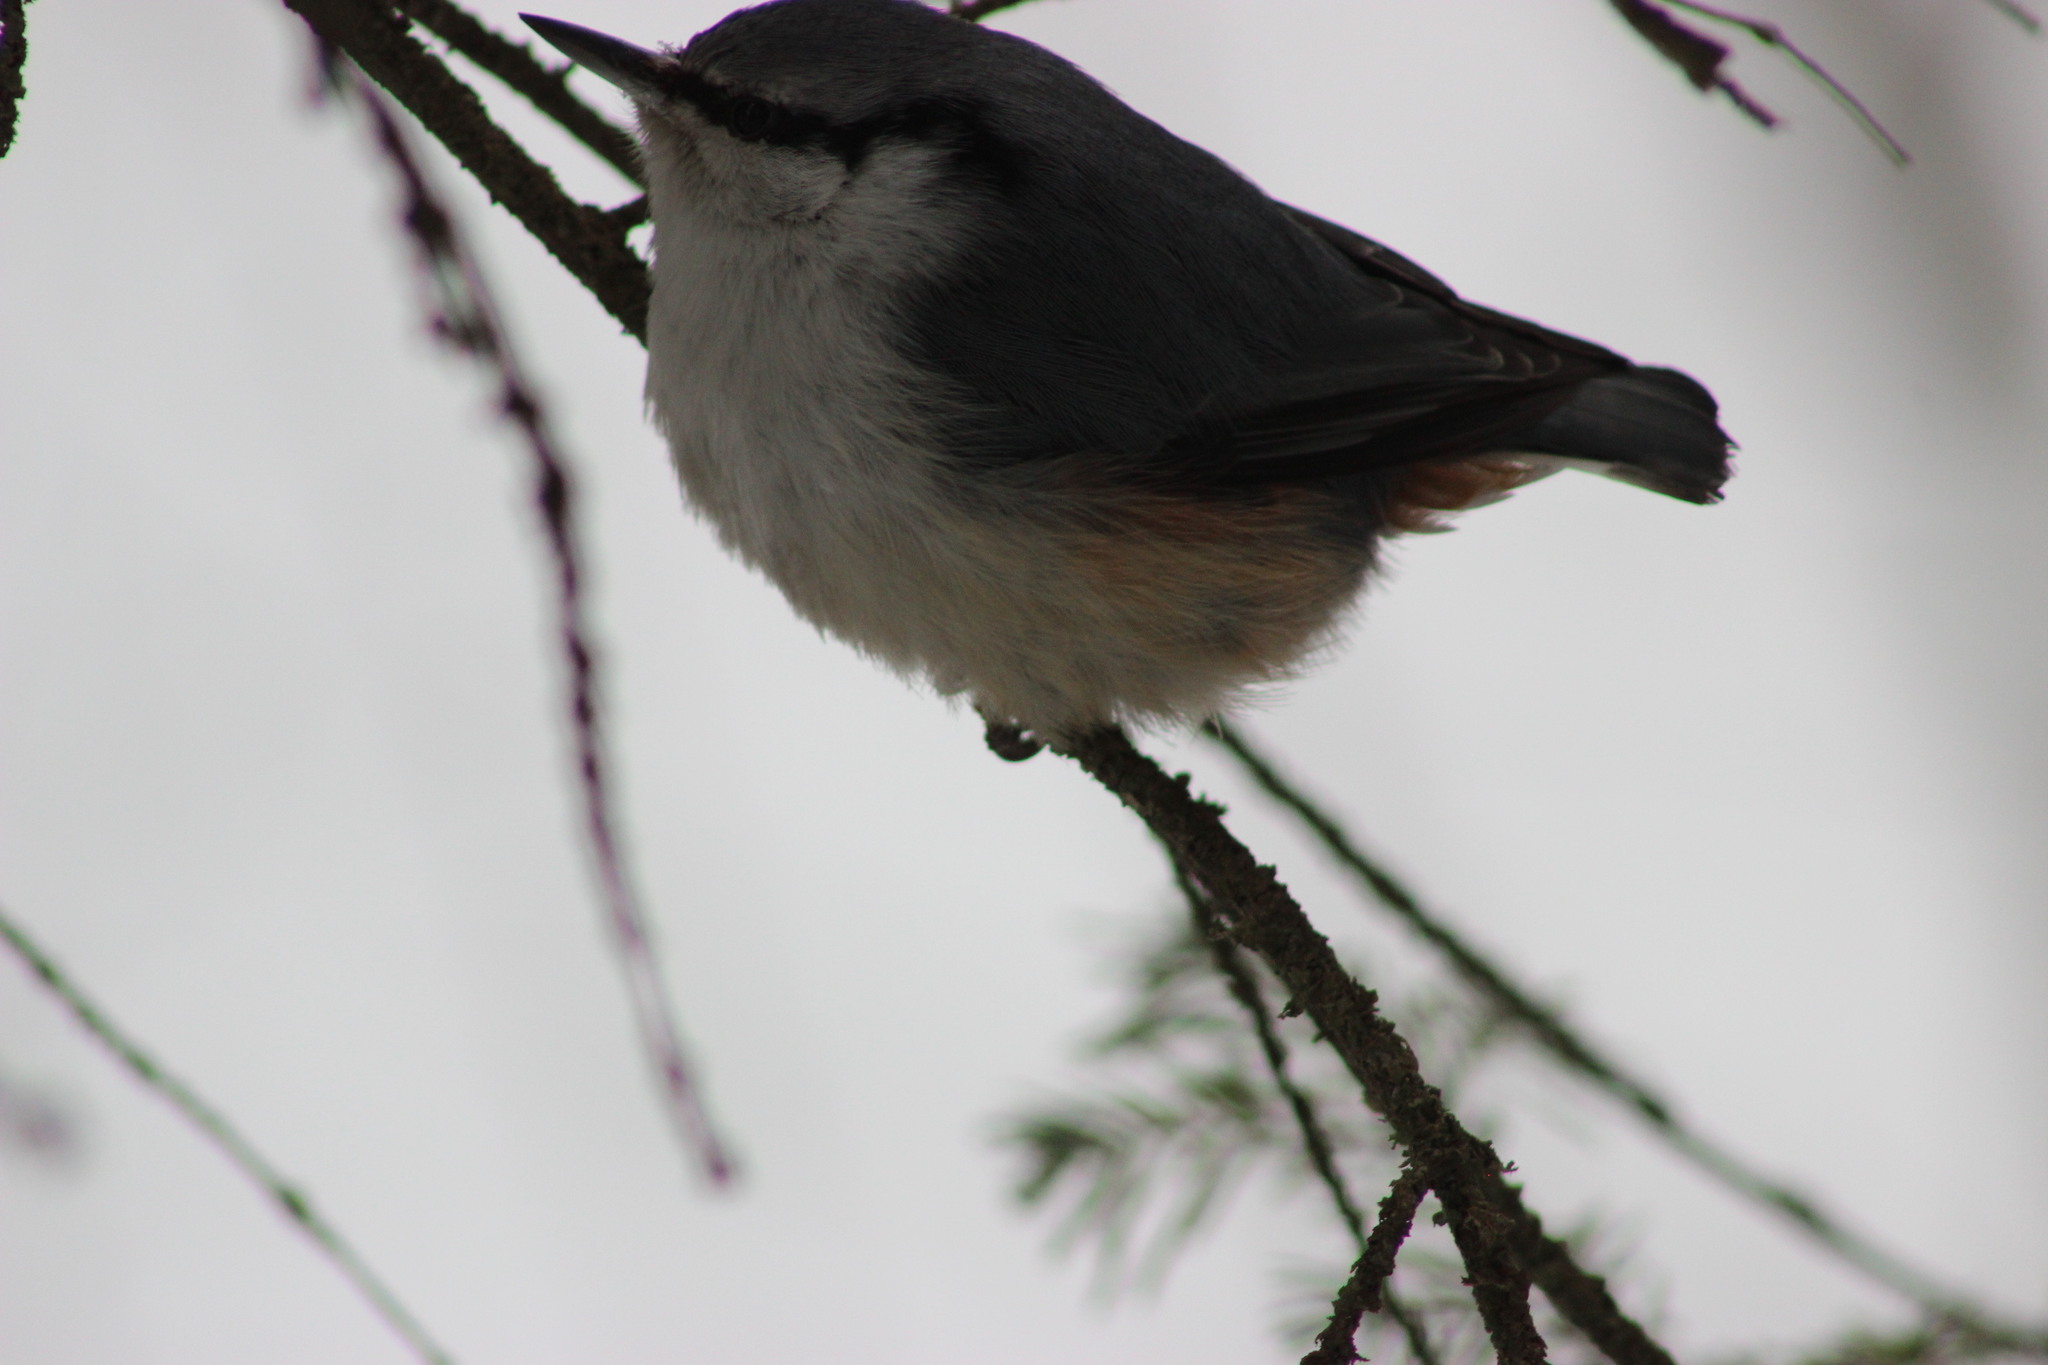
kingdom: Animalia
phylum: Chordata
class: Aves
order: Passeriformes
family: Sittidae
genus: Sitta
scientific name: Sitta europaea
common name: Eurasian nuthatch
